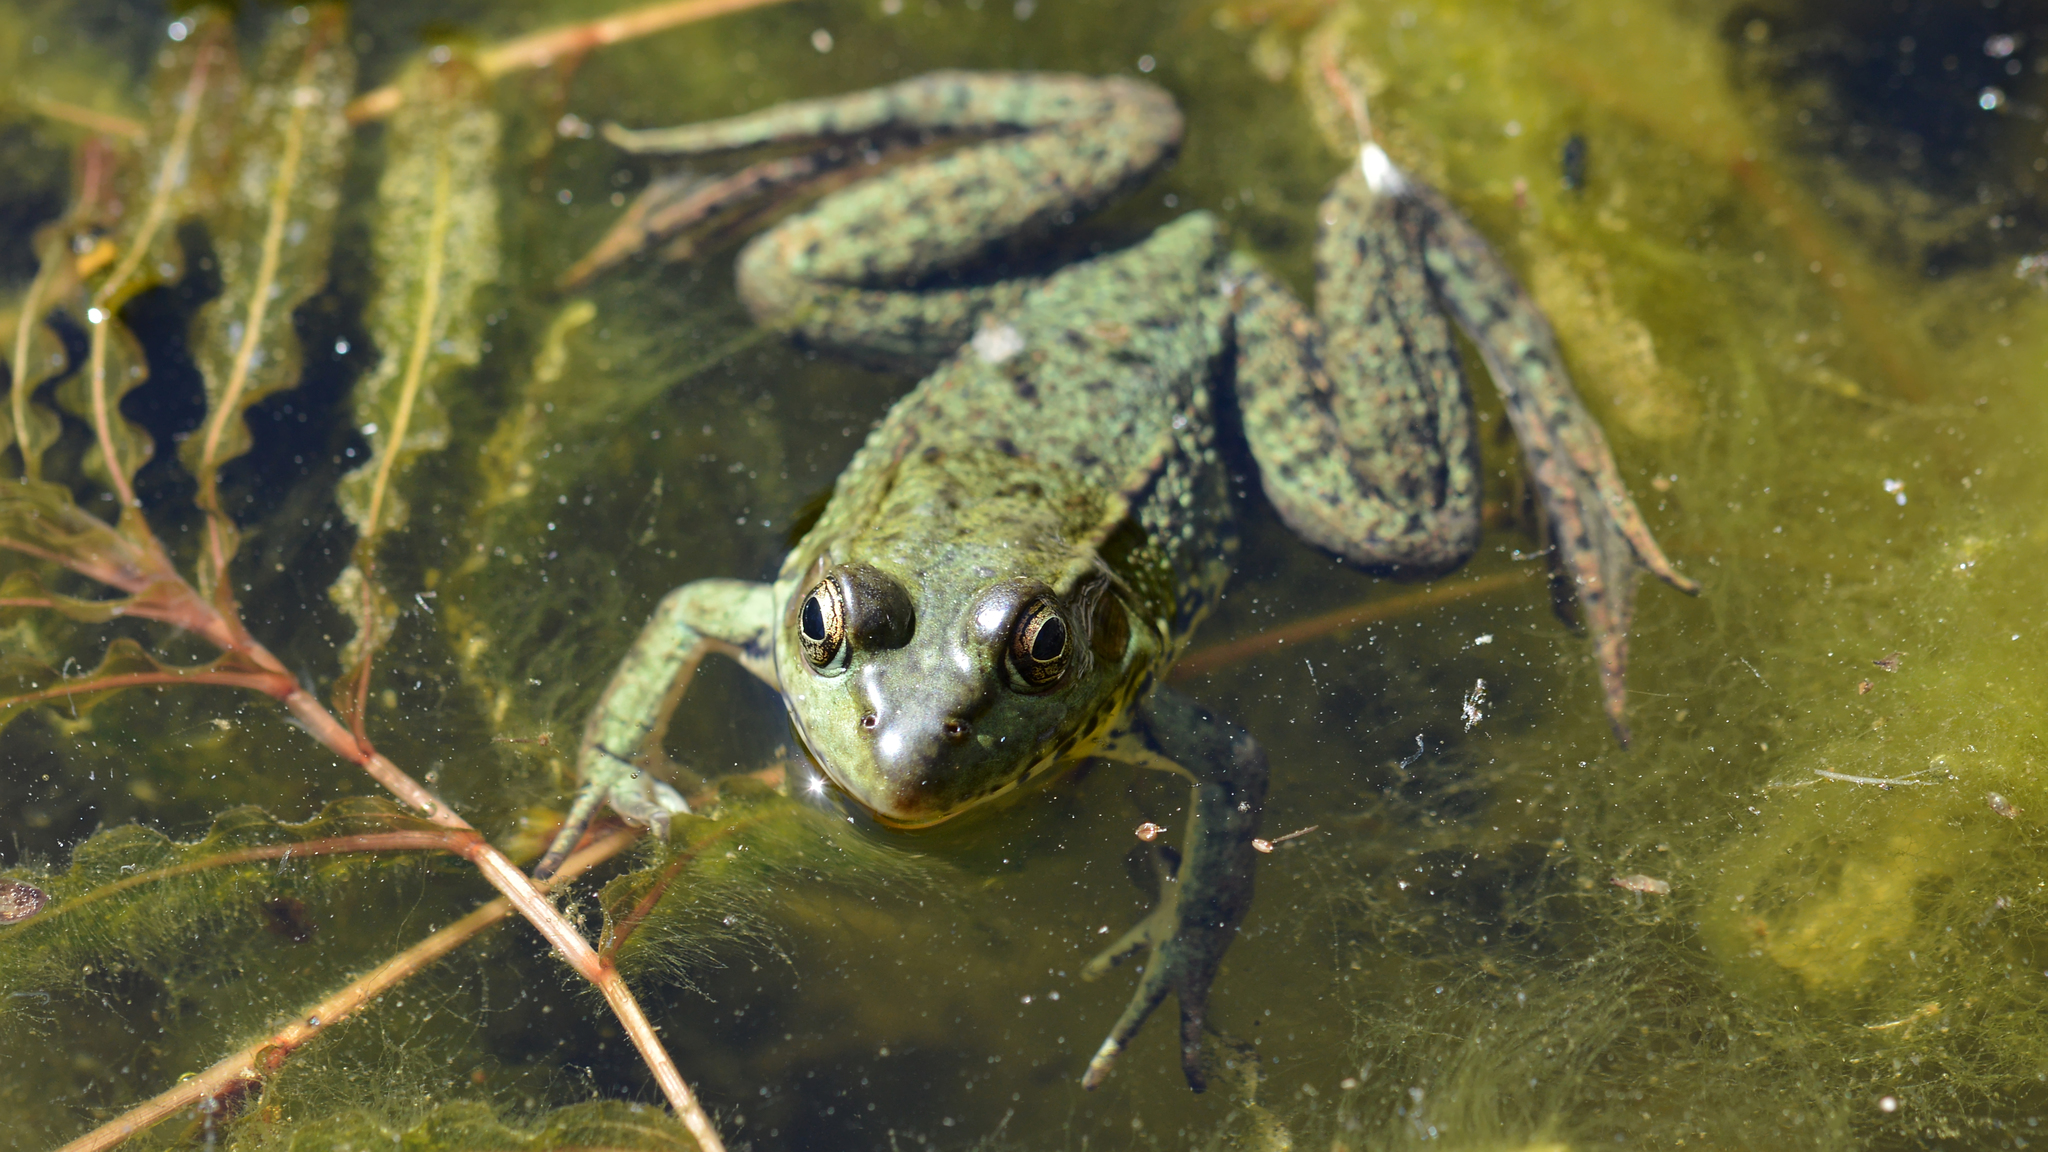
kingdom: Animalia
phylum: Chordata
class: Amphibia
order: Anura
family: Ranidae
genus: Lithobates
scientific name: Lithobates clamitans
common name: Green frog
